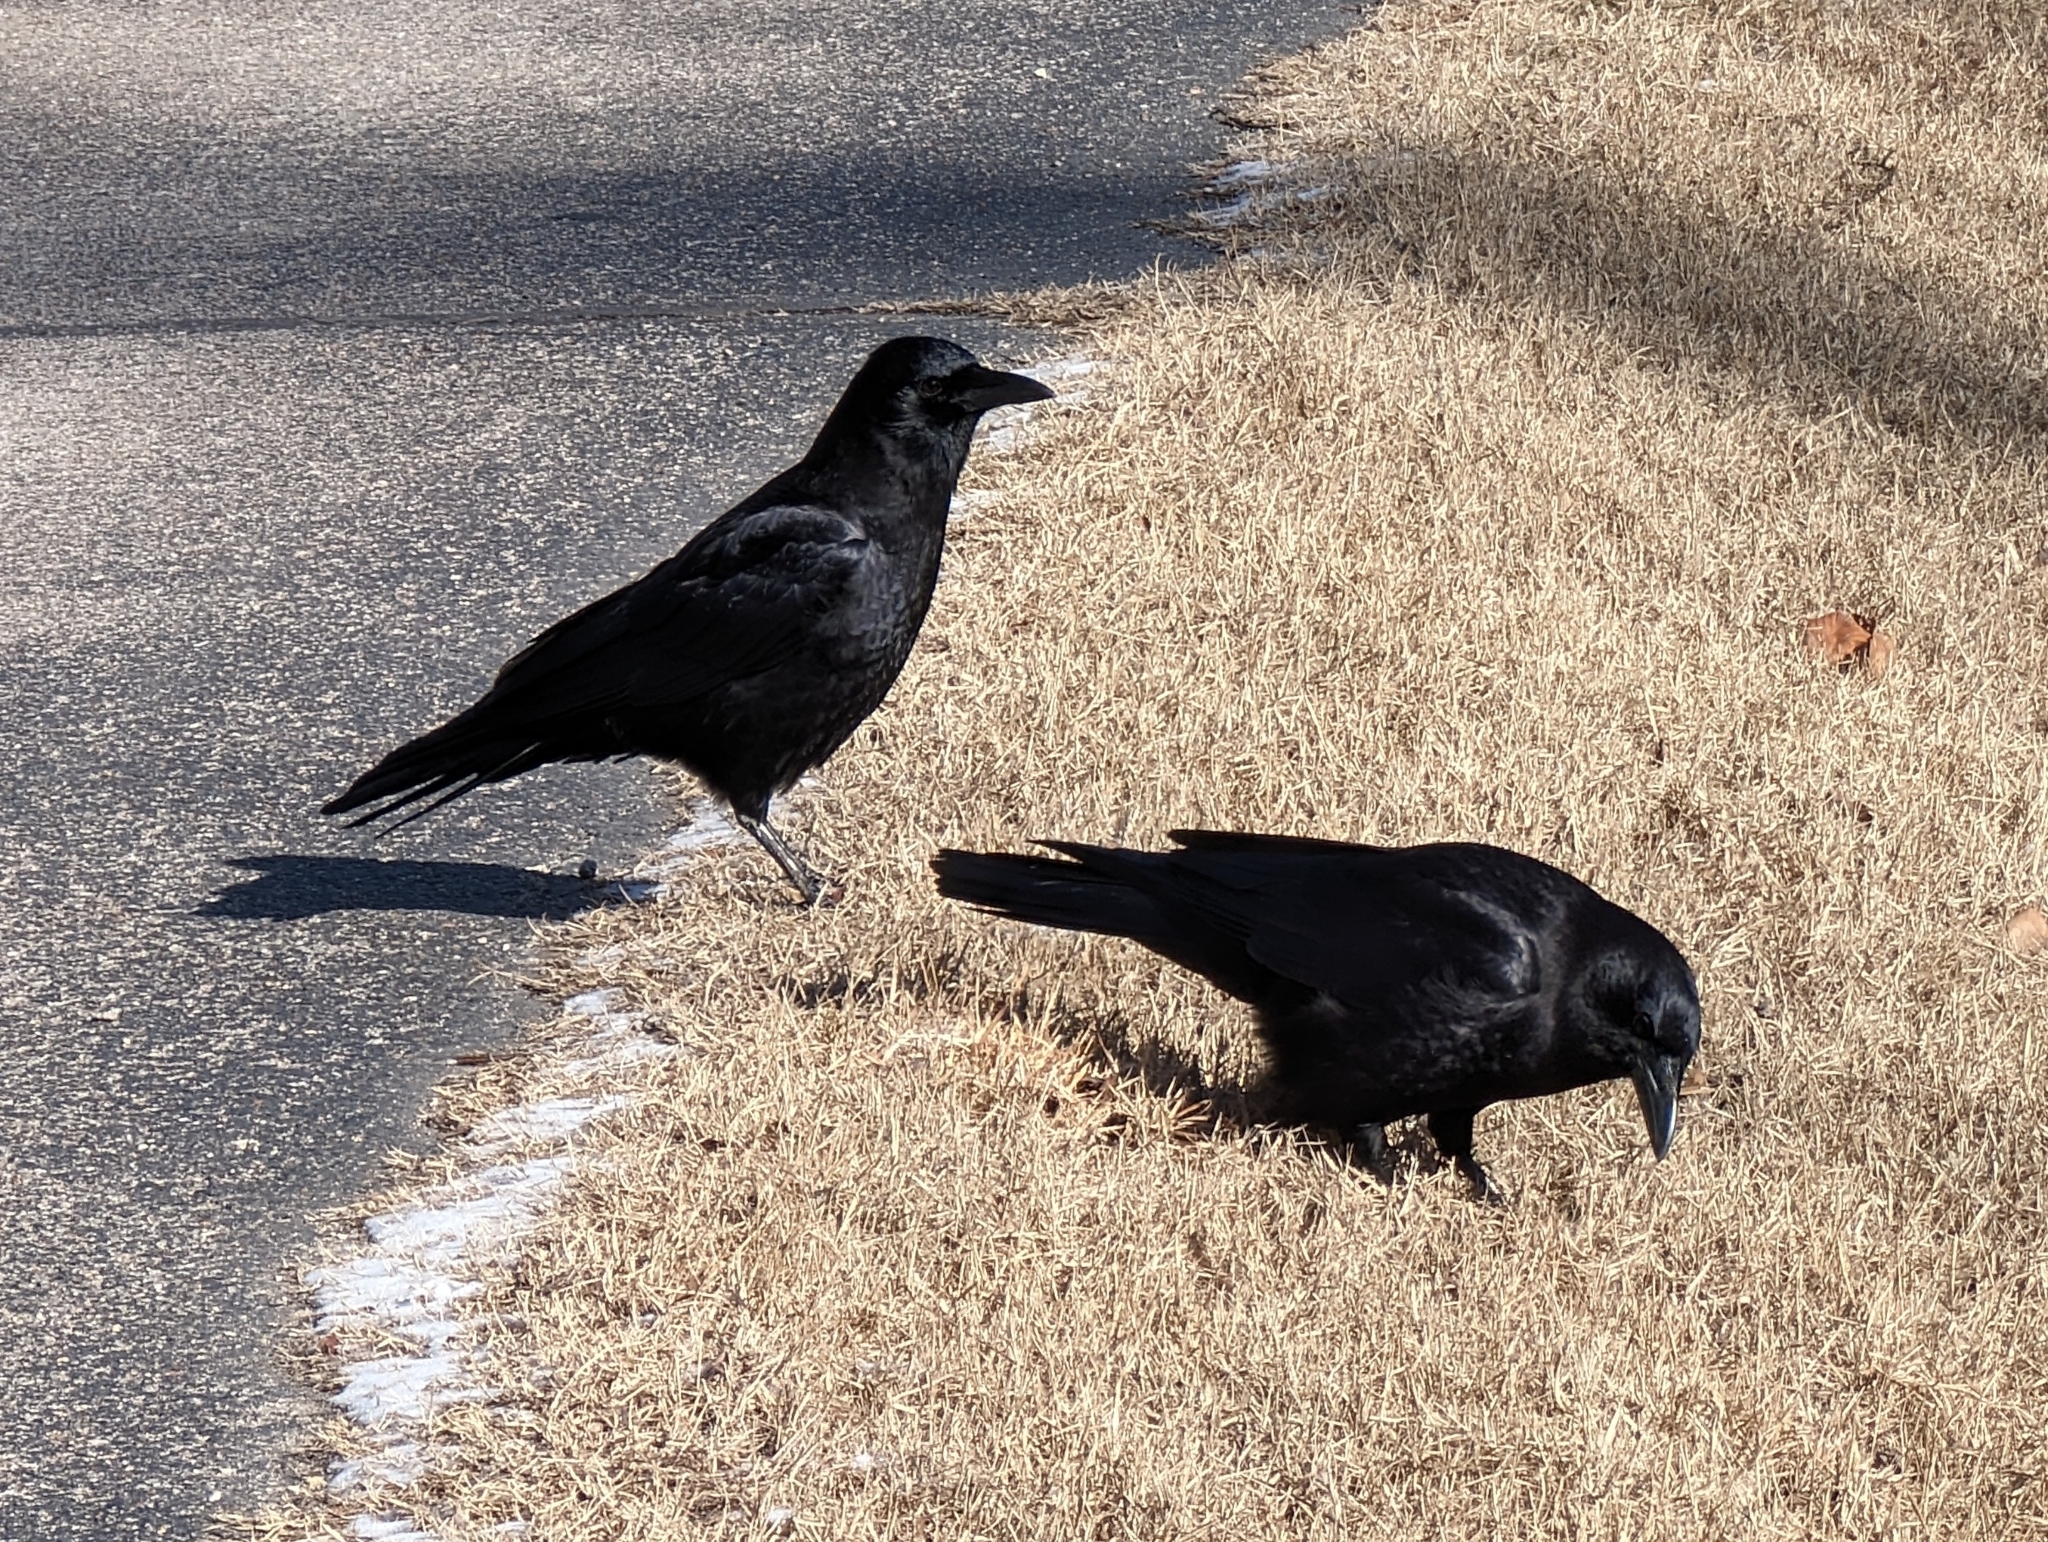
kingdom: Animalia
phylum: Chordata
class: Aves
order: Passeriformes
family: Corvidae
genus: Corvus
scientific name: Corvus brachyrhynchos
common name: American crow
